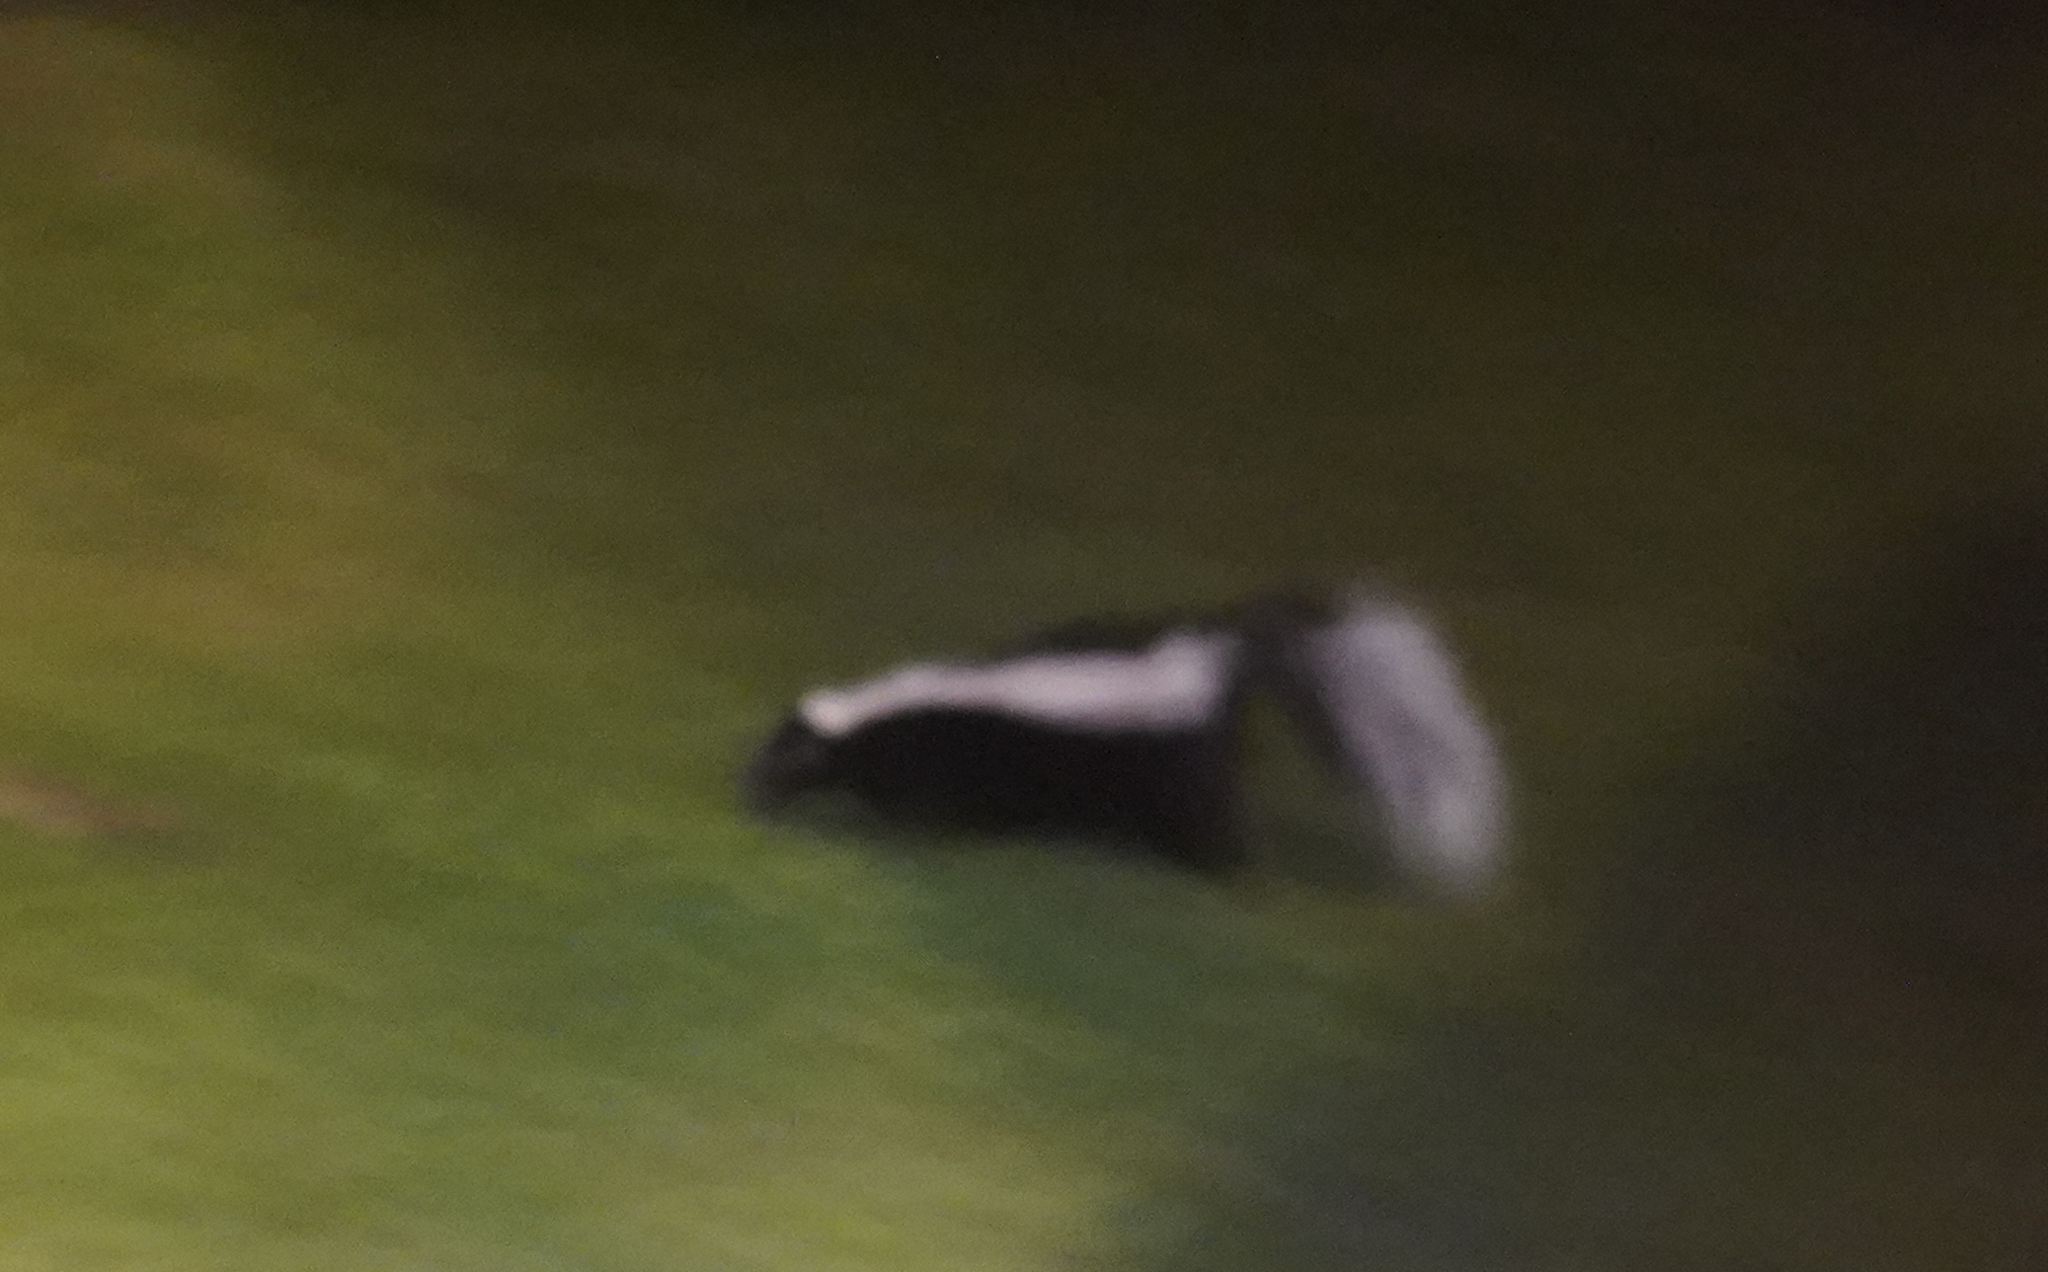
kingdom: Animalia
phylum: Chordata
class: Mammalia
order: Carnivora
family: Mephitidae
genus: Mephitis
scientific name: Mephitis mephitis
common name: Striped skunk
